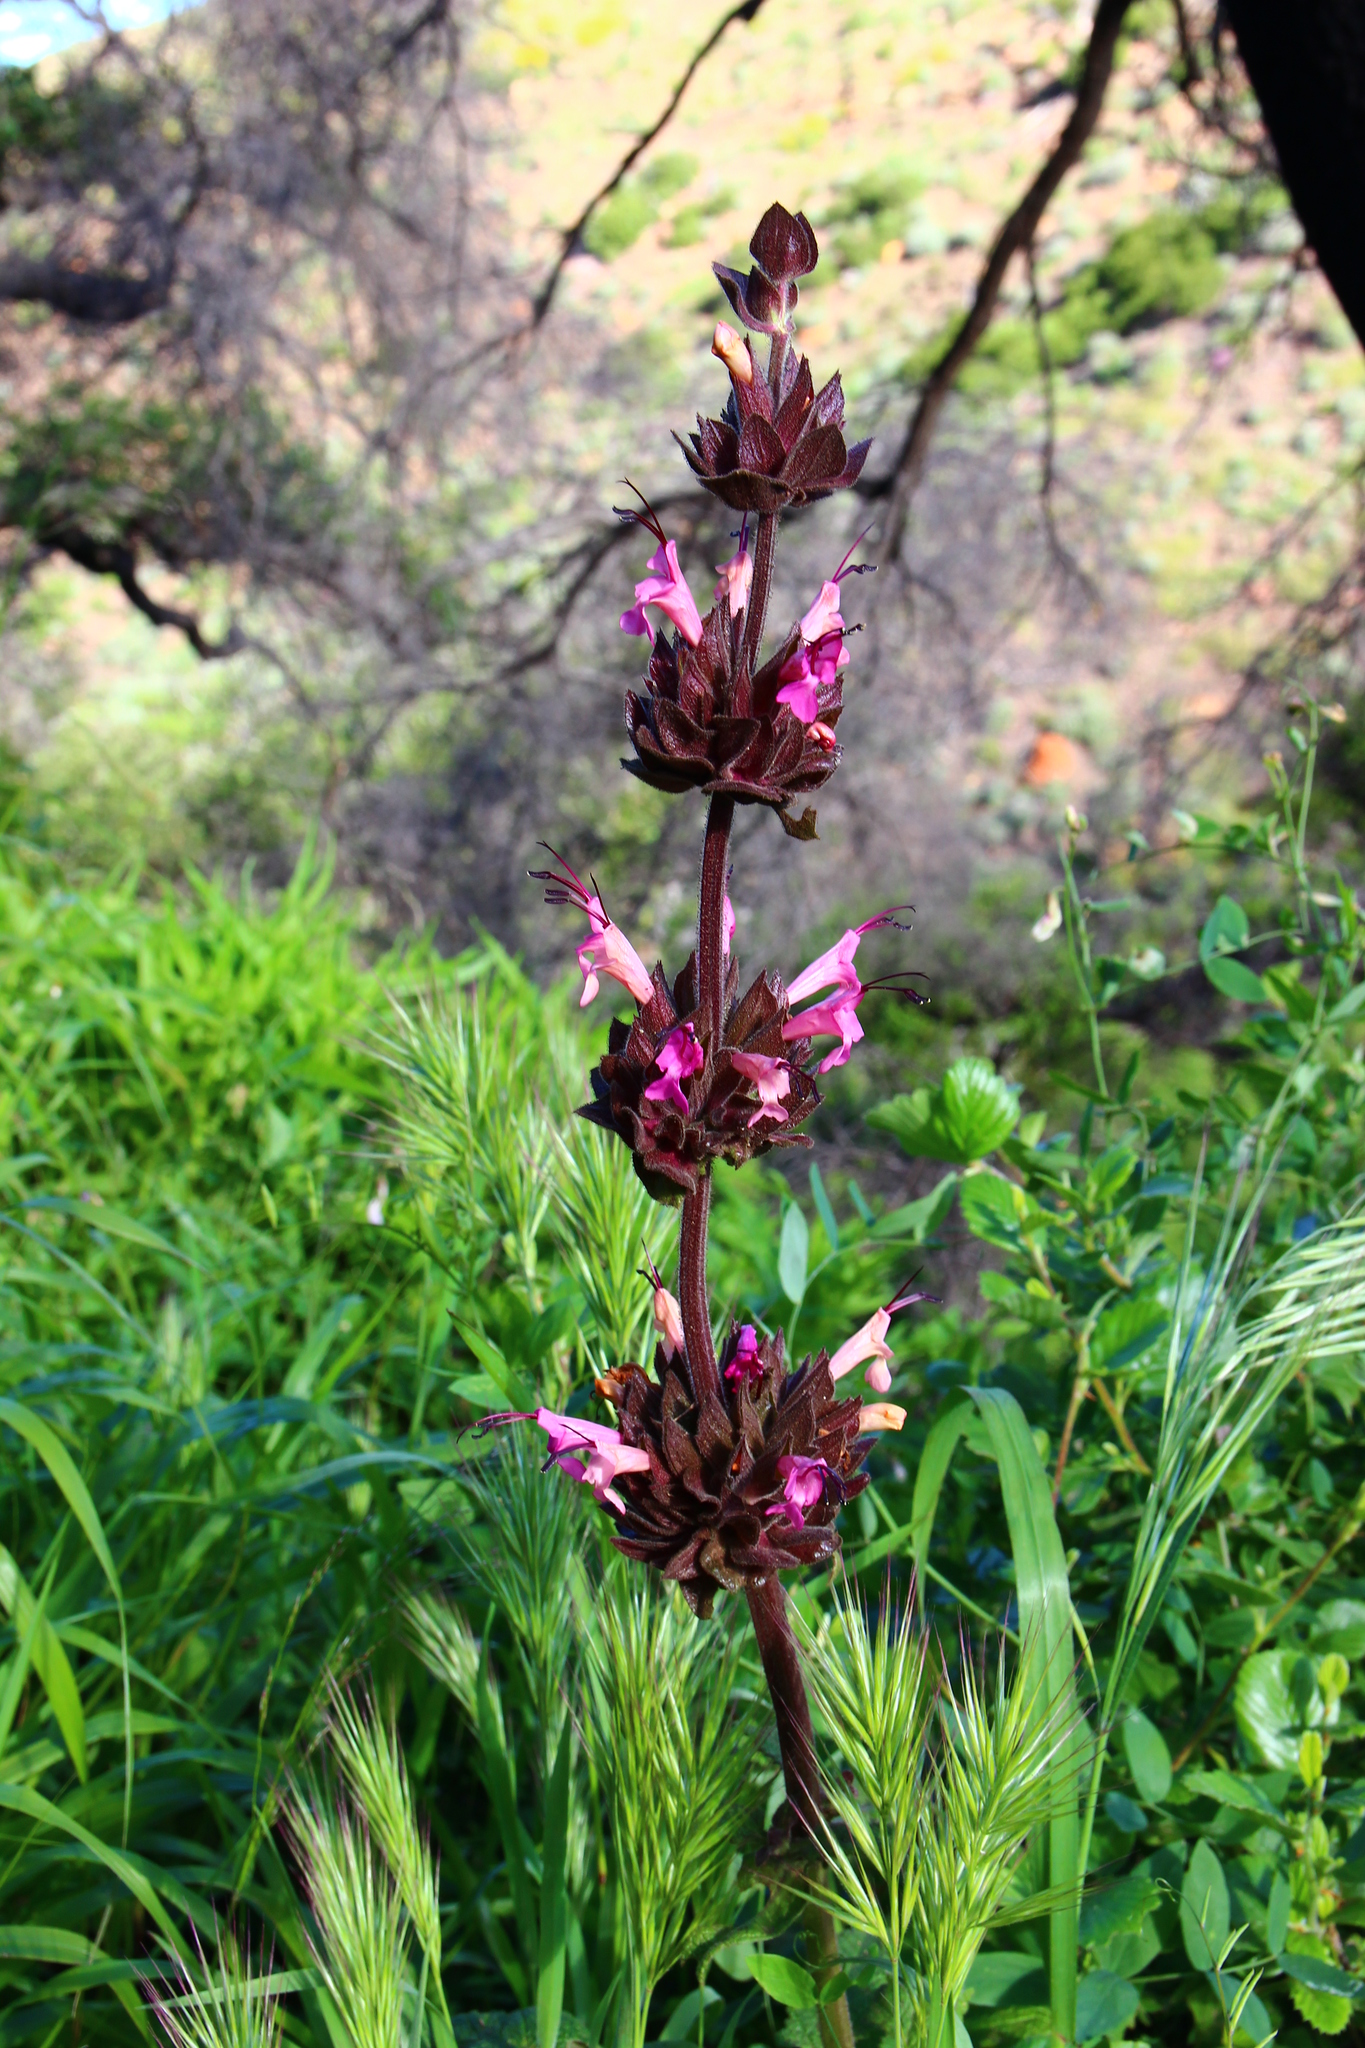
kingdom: Plantae
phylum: Tracheophyta
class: Magnoliopsida
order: Lamiales
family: Lamiaceae
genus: Salvia
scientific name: Salvia spathacea
